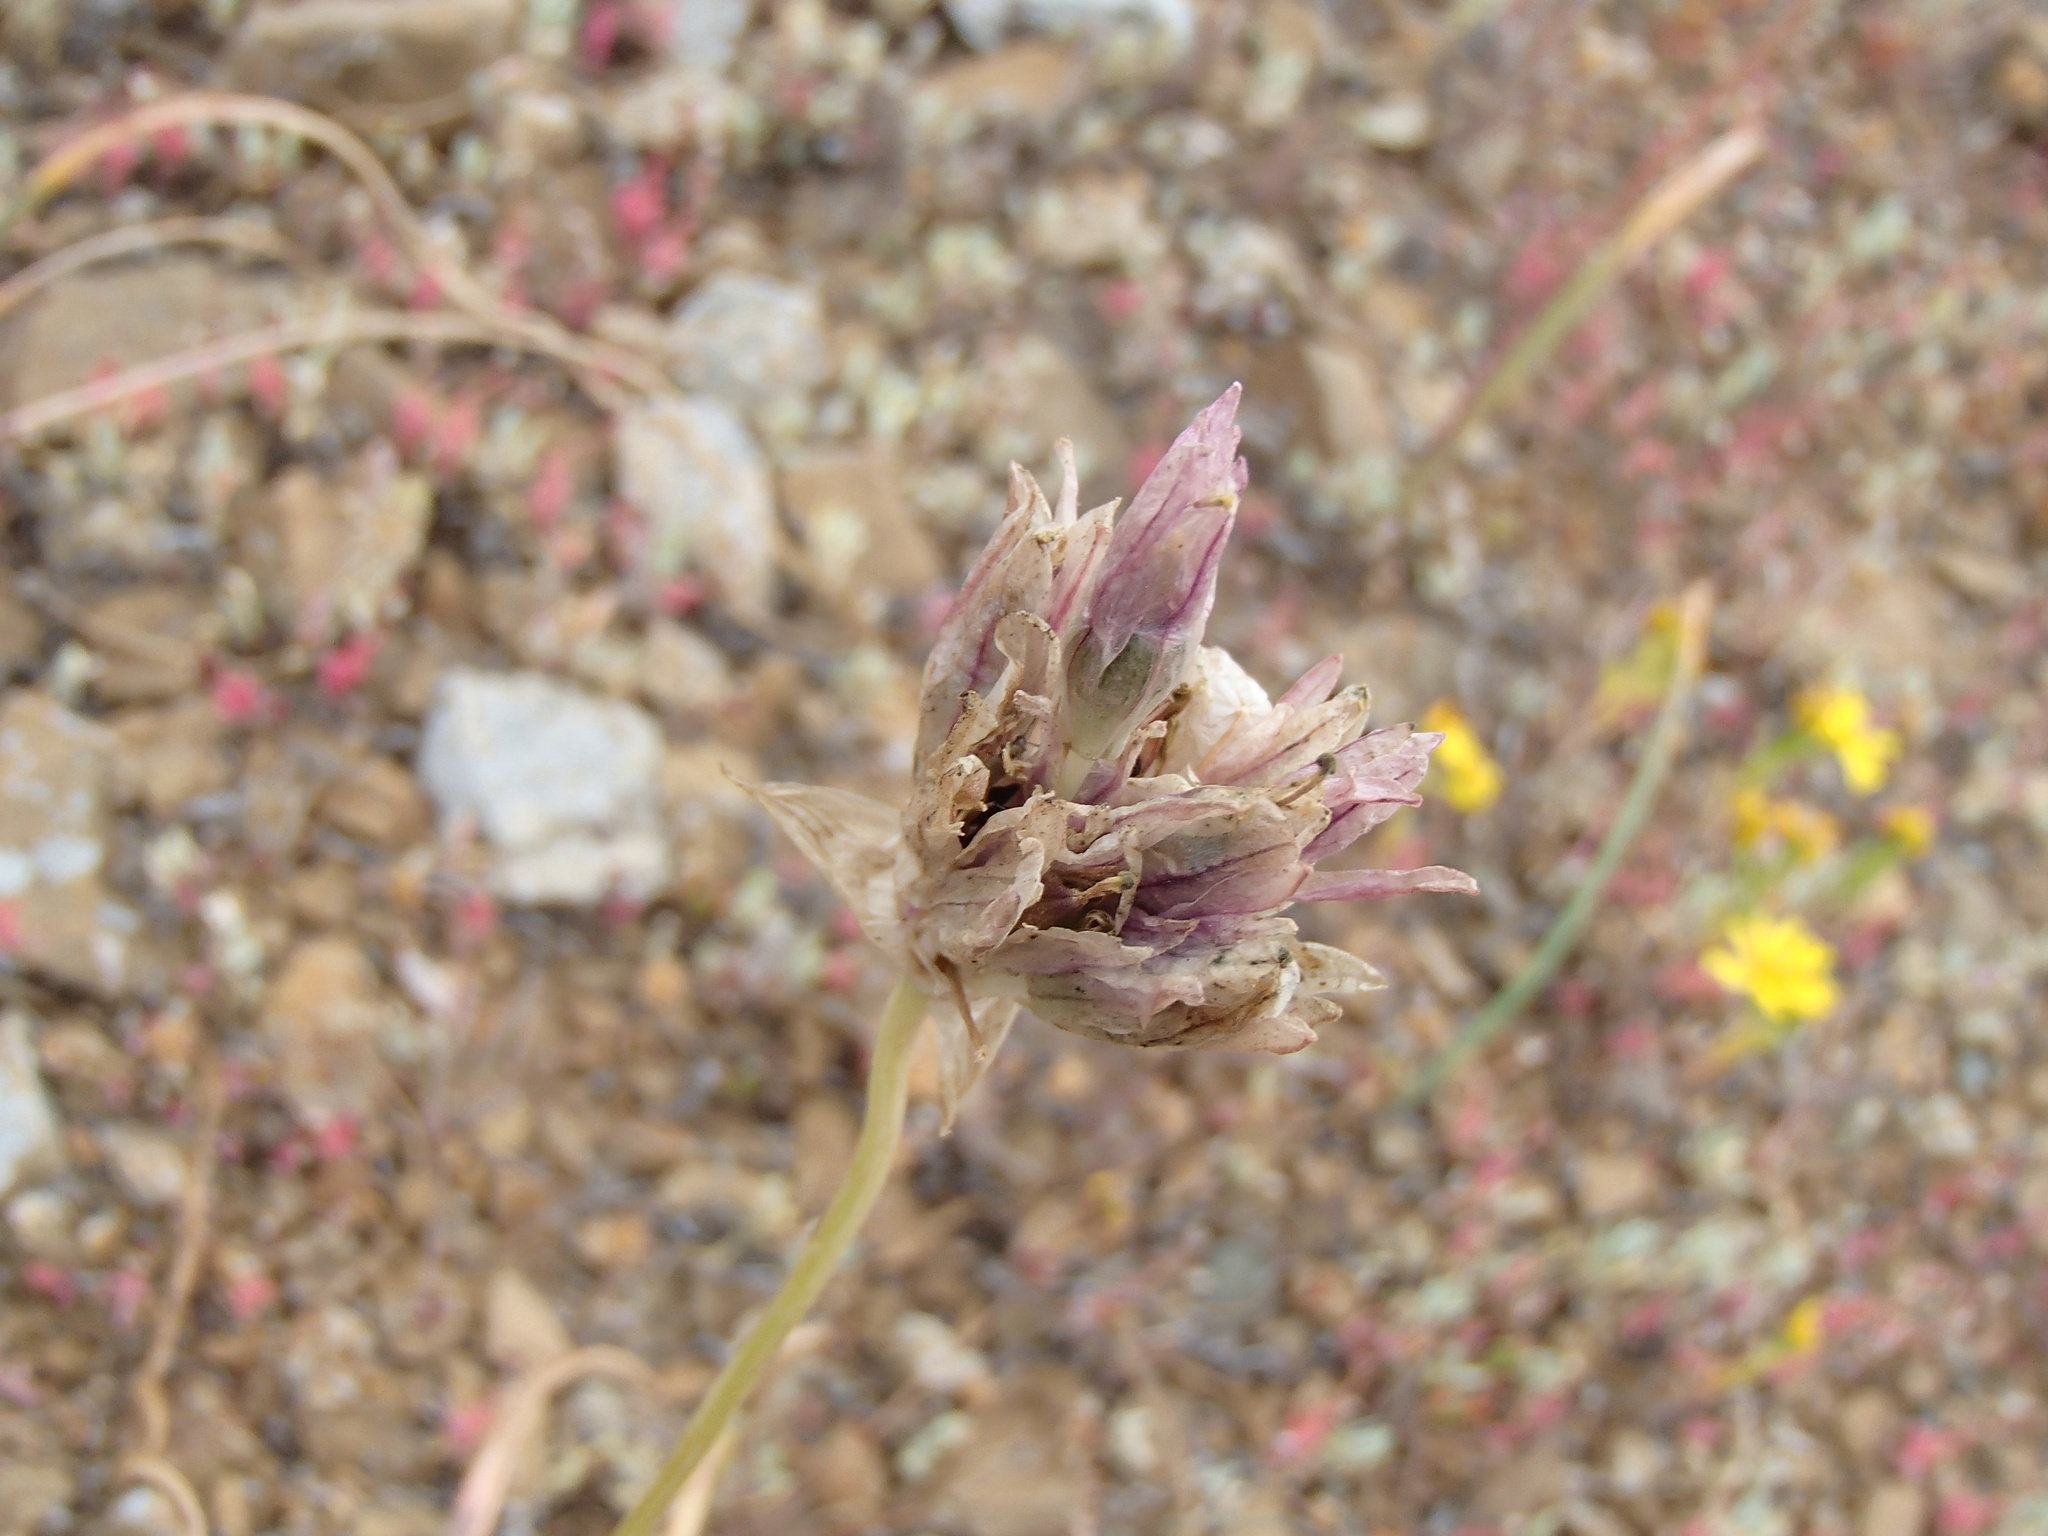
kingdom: Plantae
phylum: Tracheophyta
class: Liliopsida
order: Asparagales
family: Asparagaceae
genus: Dipterostemon
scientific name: Dipterostemon capitatus
